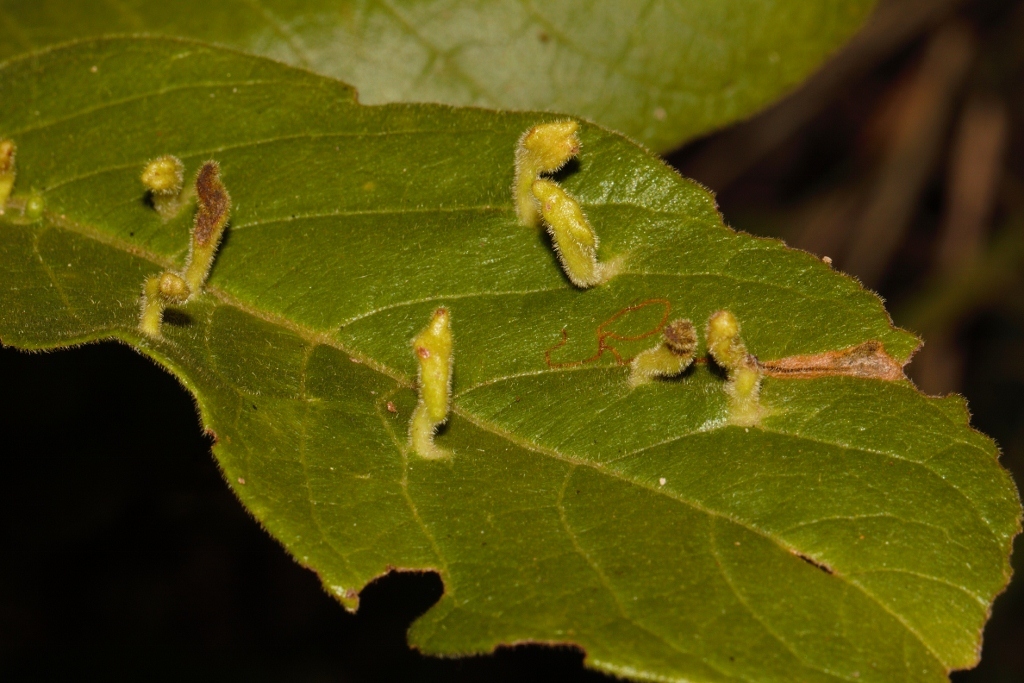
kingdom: Animalia
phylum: Arthropoda
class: Arachnida
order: Trombidiformes
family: Eriophyidae
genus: Acalitus
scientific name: Acalitus
